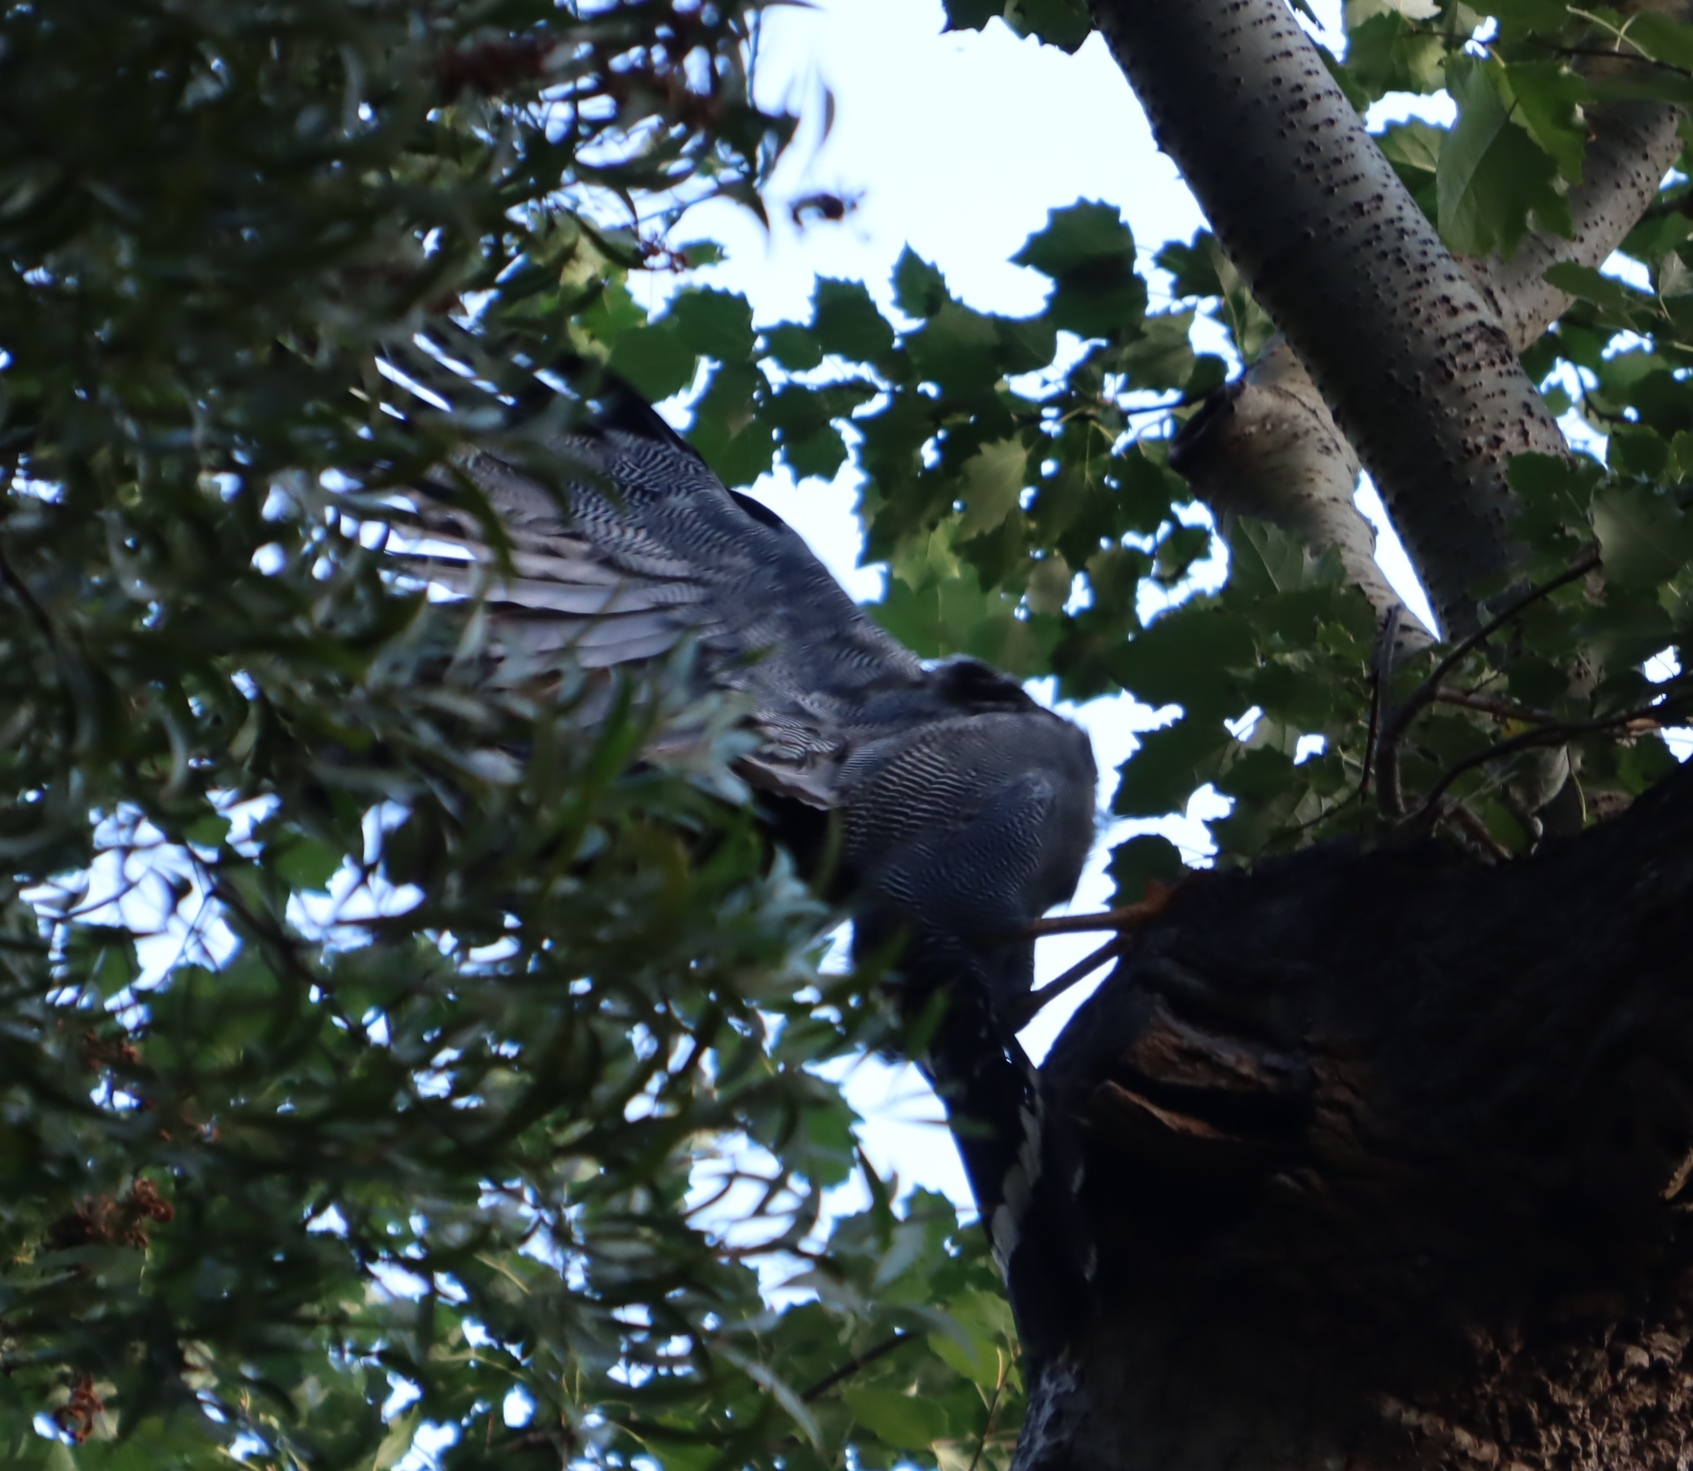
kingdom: Animalia
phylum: Chordata
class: Aves
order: Accipitriformes
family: Accipitridae
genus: Polyboroides
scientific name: Polyboroides typus
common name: African harrier-hawk
